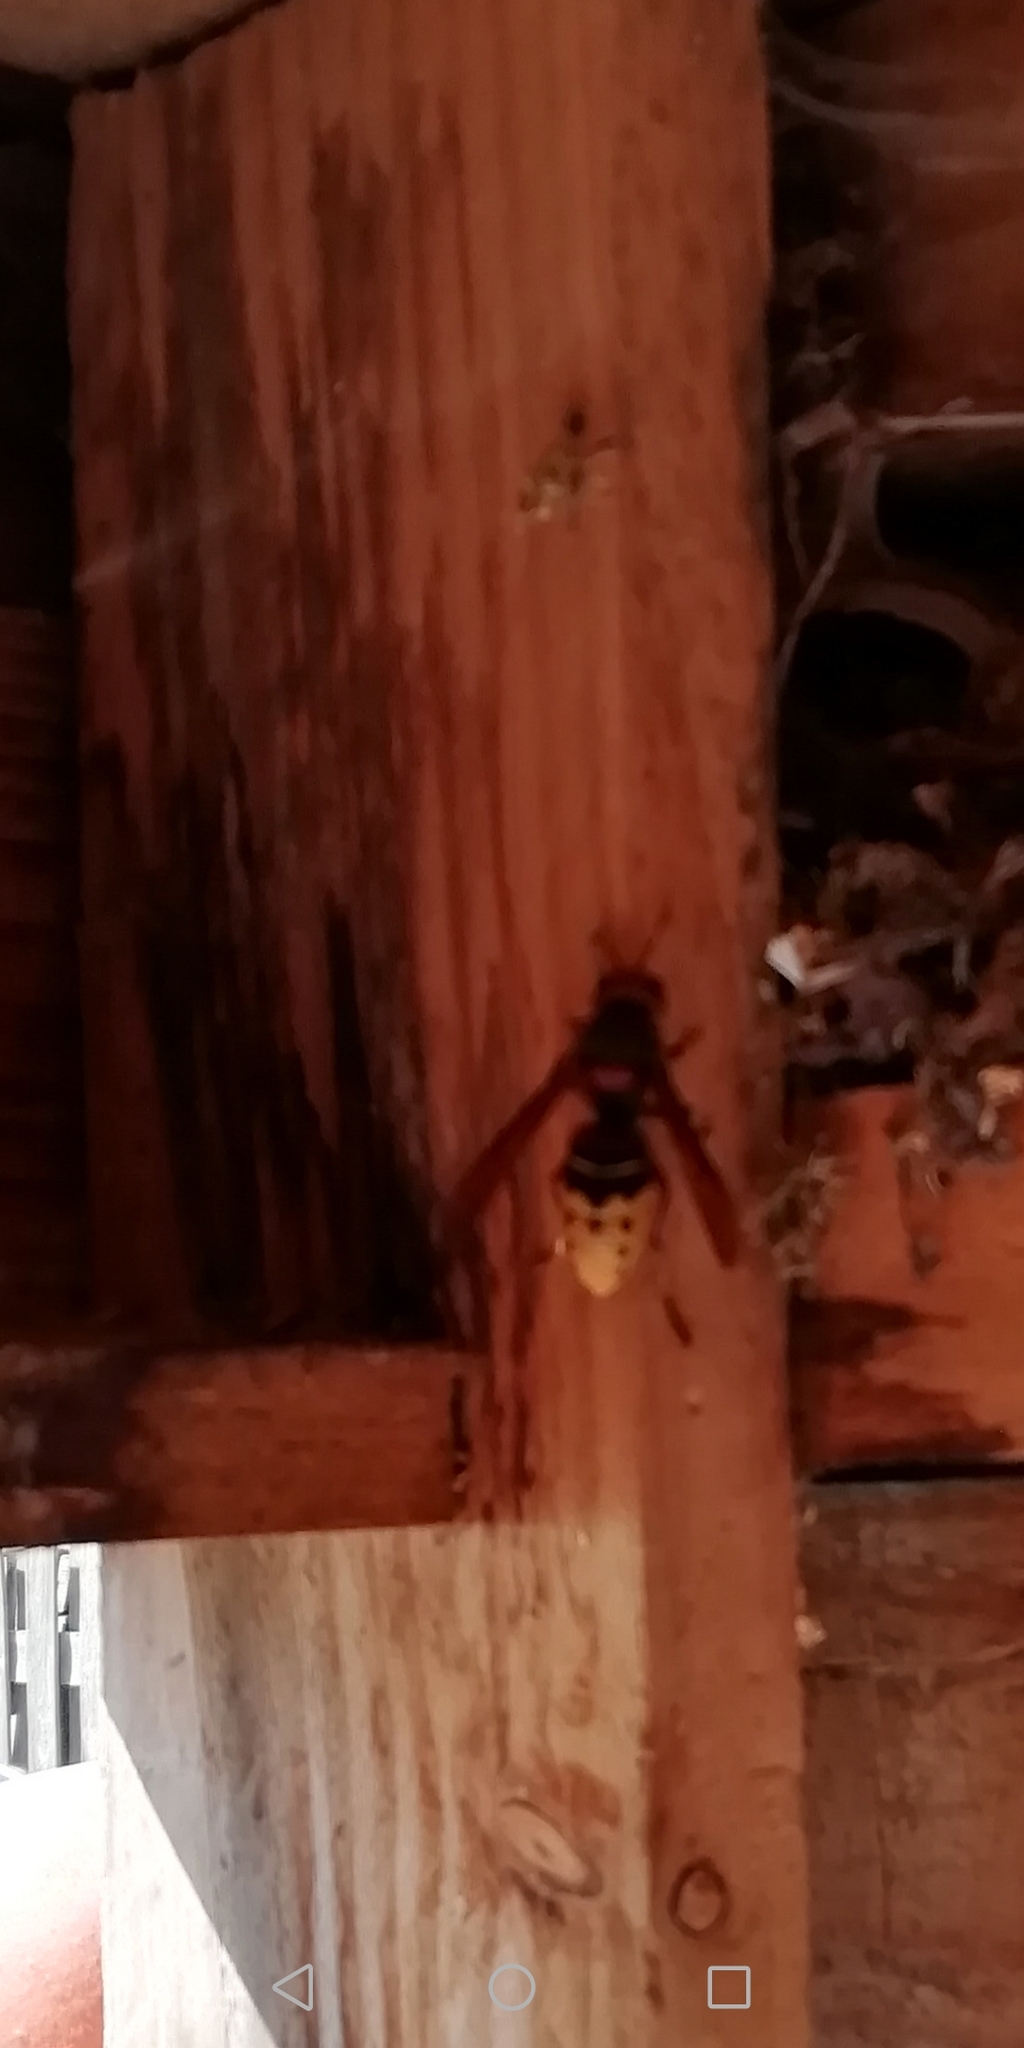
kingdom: Animalia
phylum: Arthropoda
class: Insecta
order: Hymenoptera
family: Vespidae
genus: Vespa
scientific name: Vespa crabro
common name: Hornet
